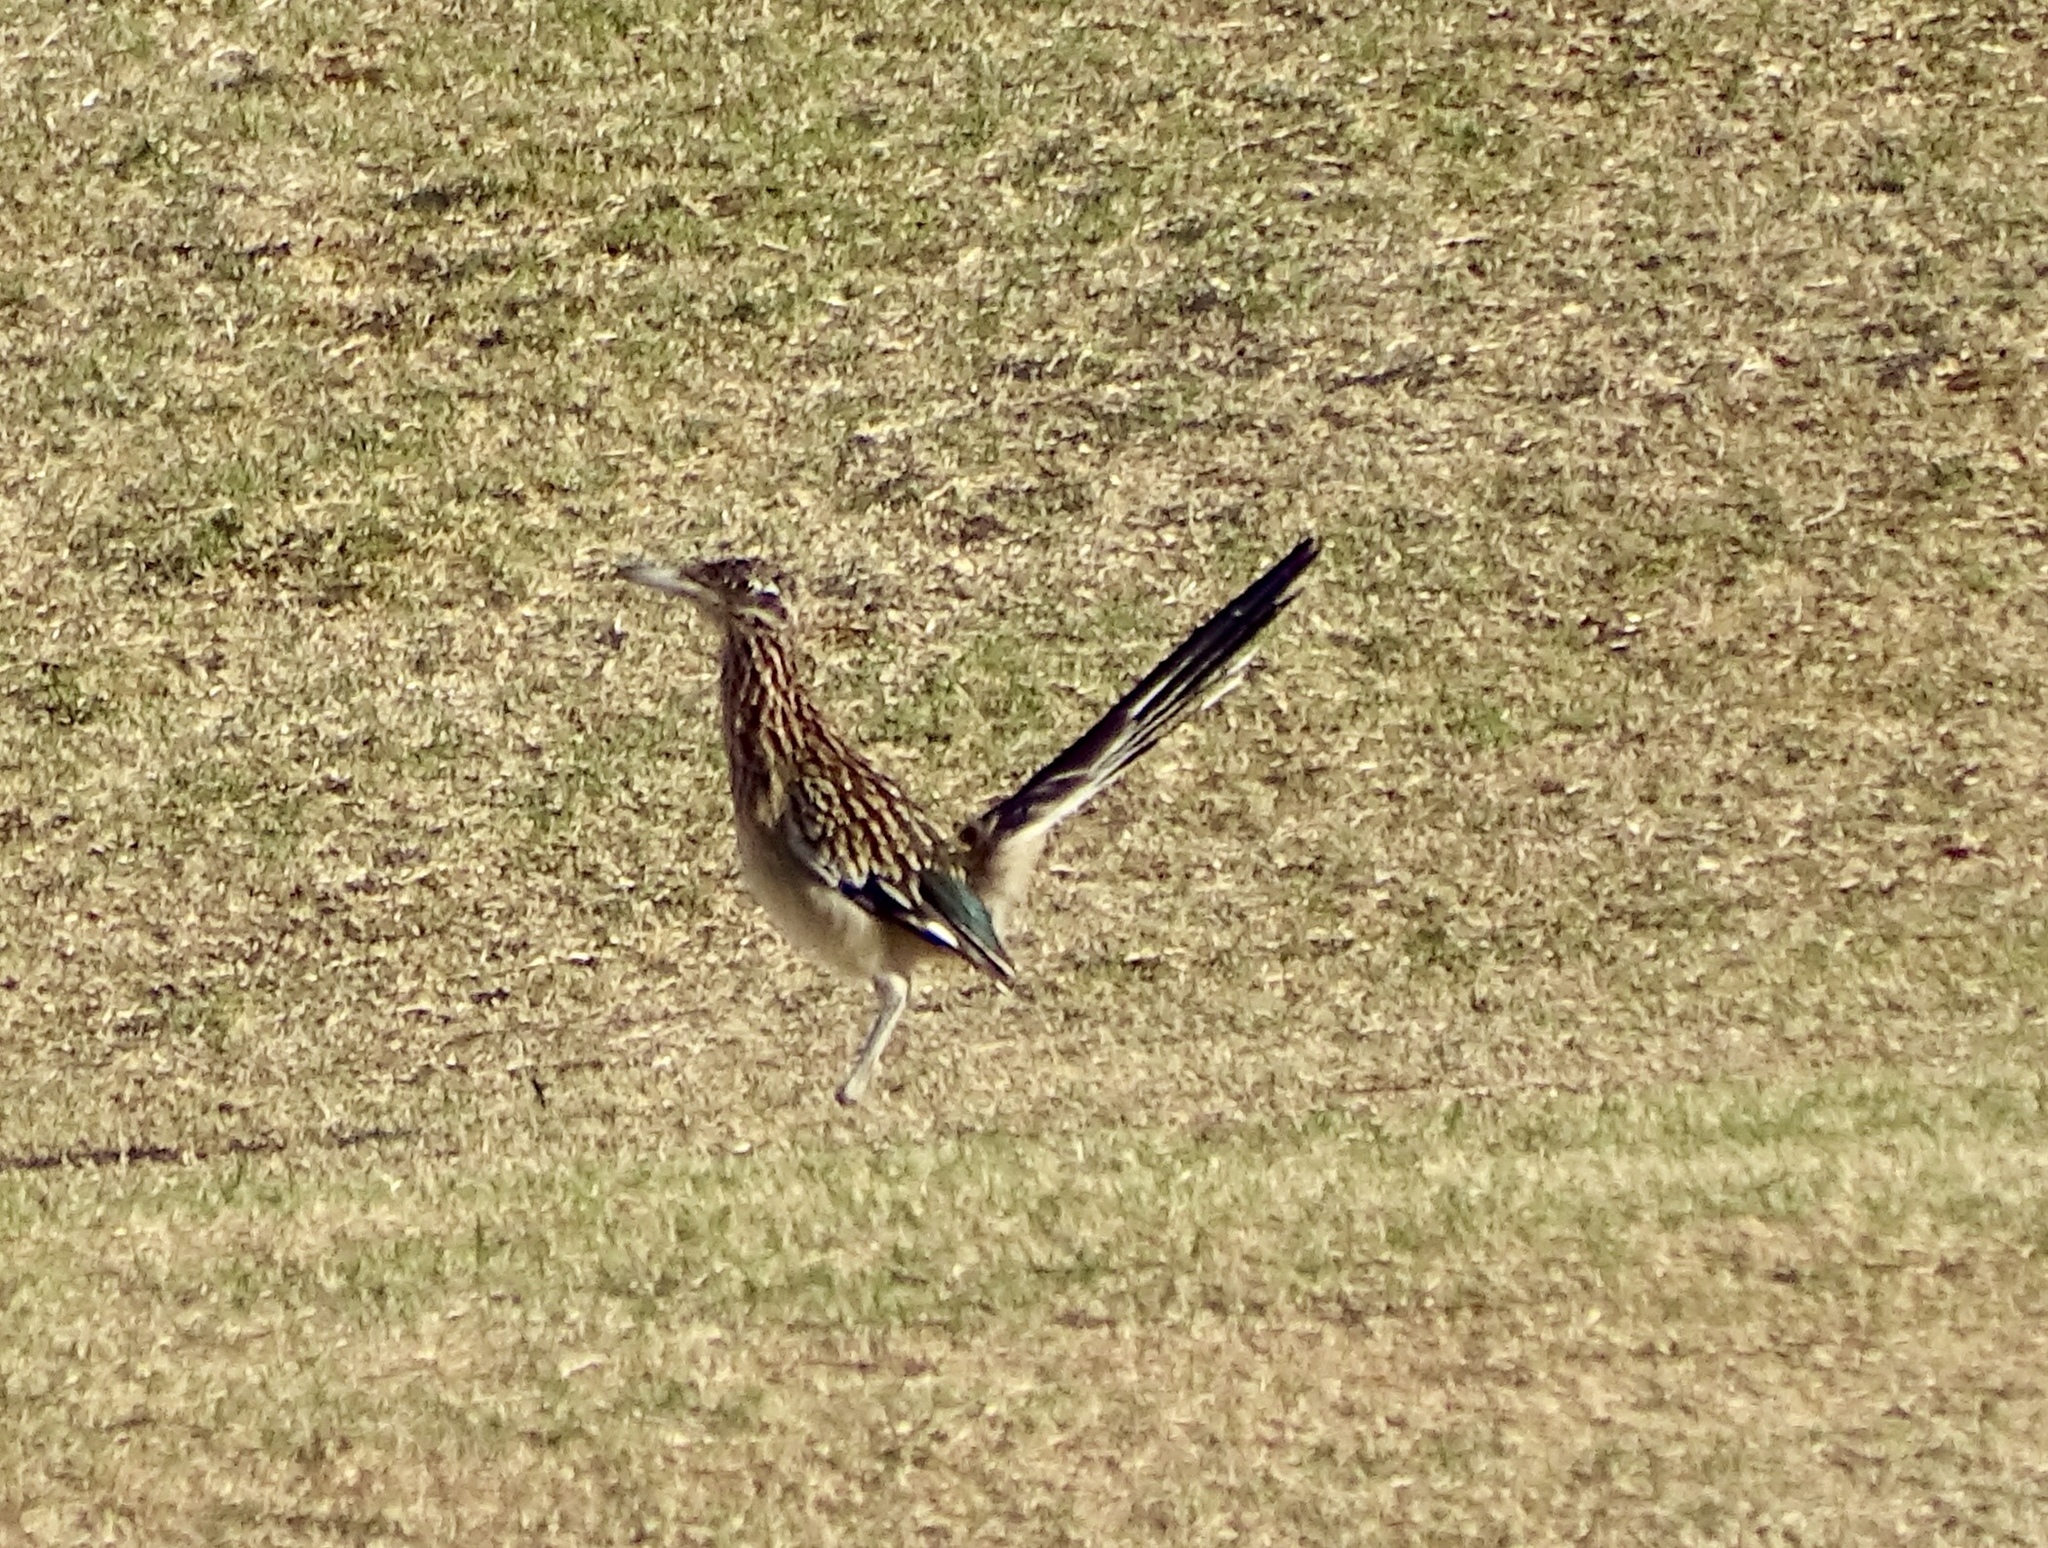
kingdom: Animalia
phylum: Chordata
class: Aves
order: Cuculiformes
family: Cuculidae
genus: Geococcyx
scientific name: Geococcyx californianus
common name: Greater roadrunner
